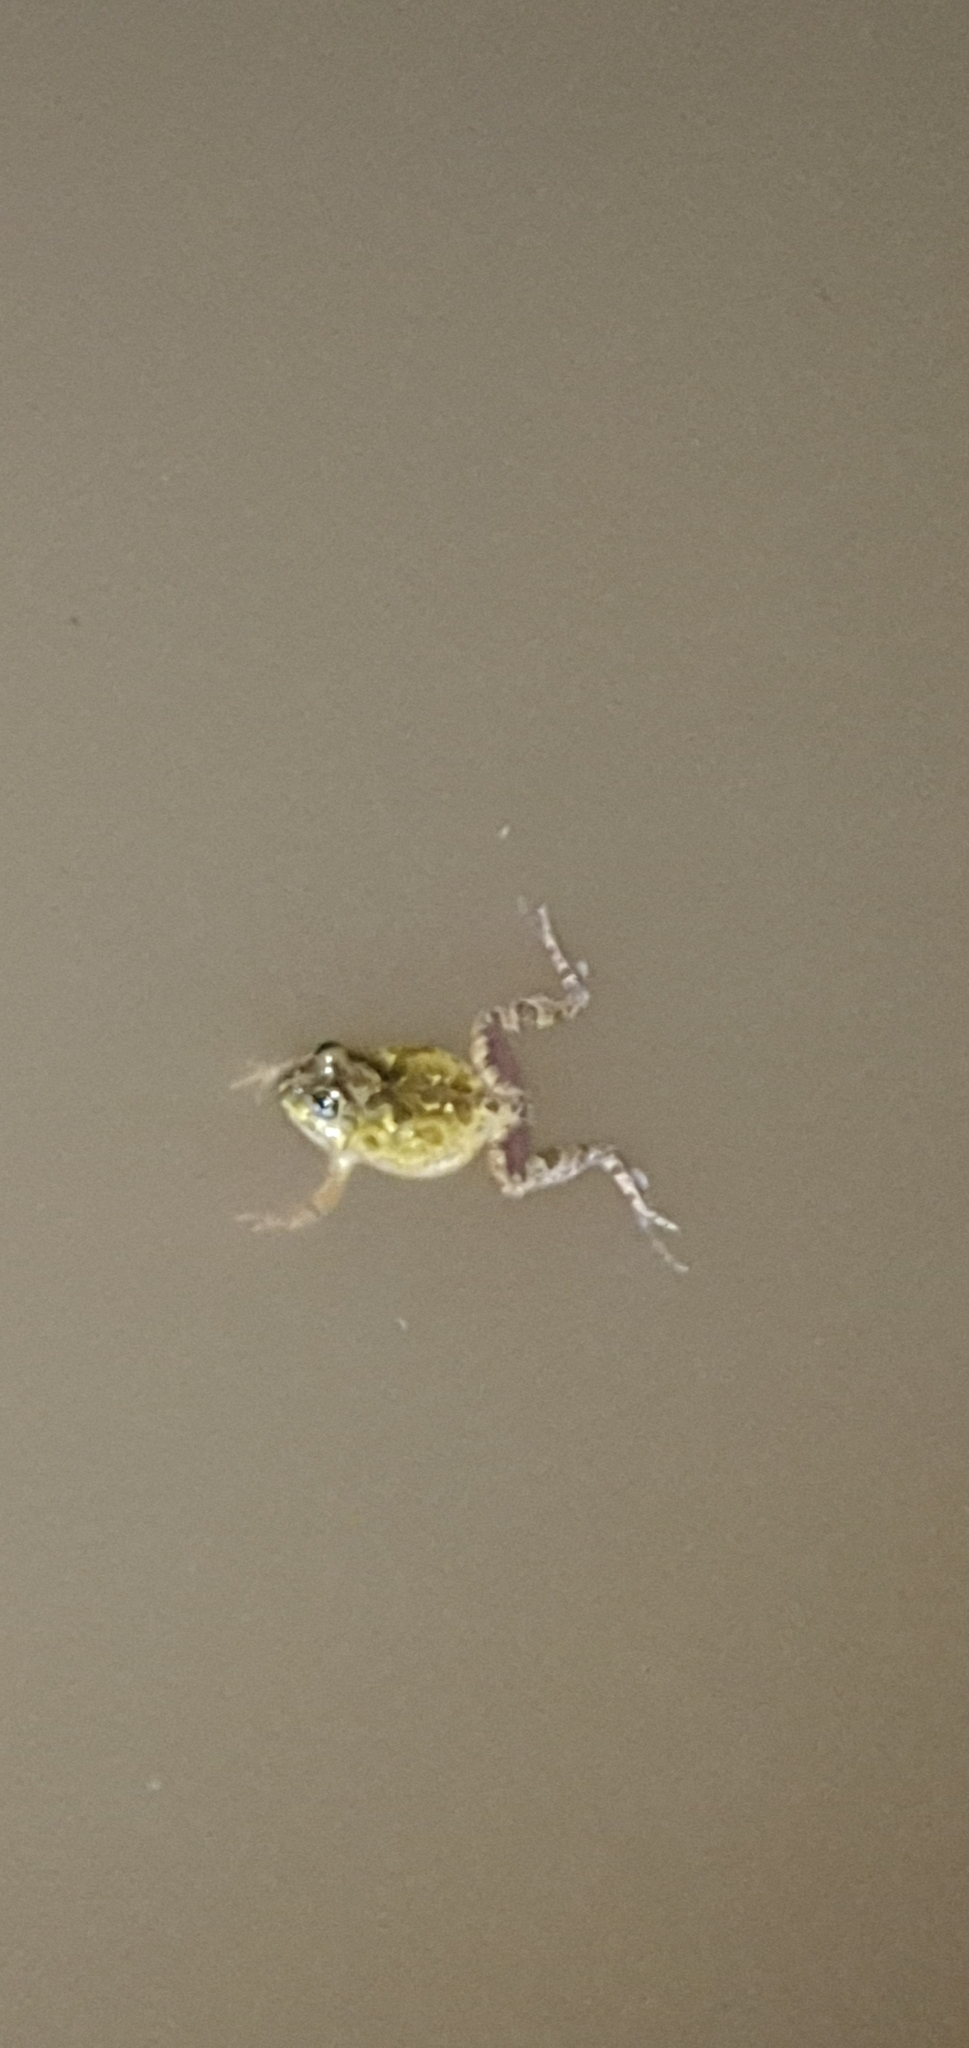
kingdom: Animalia
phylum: Chordata
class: Amphibia
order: Anura
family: Limnodynastidae
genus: Platyplectrum
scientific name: Platyplectrum ornatum
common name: Ornate burrowing frog
